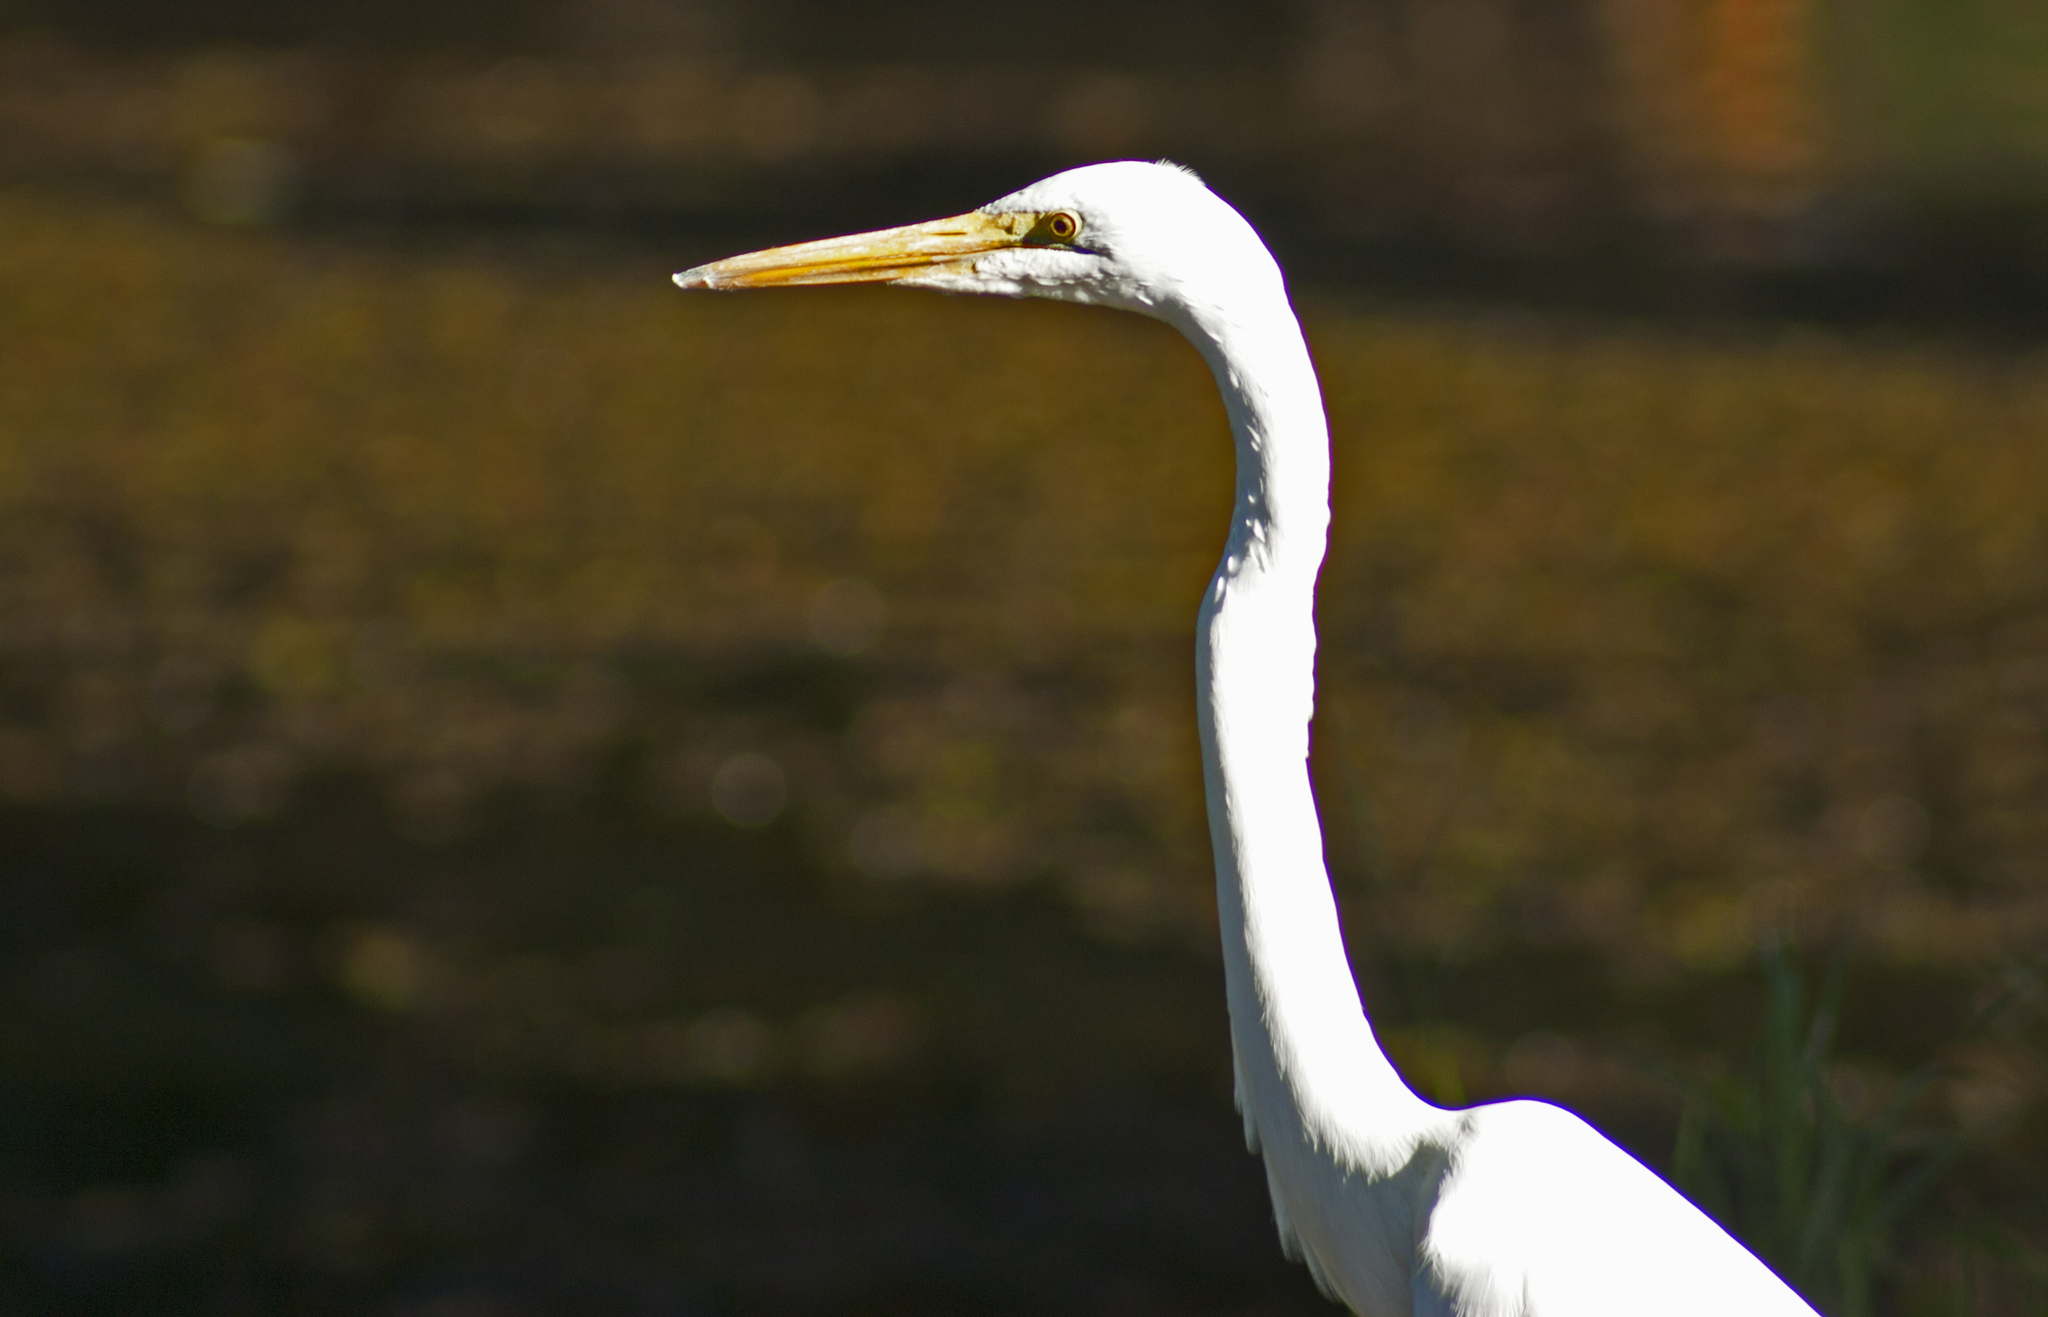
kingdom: Animalia
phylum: Chordata
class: Aves
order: Pelecaniformes
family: Ardeidae
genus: Ardea
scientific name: Ardea modesta
